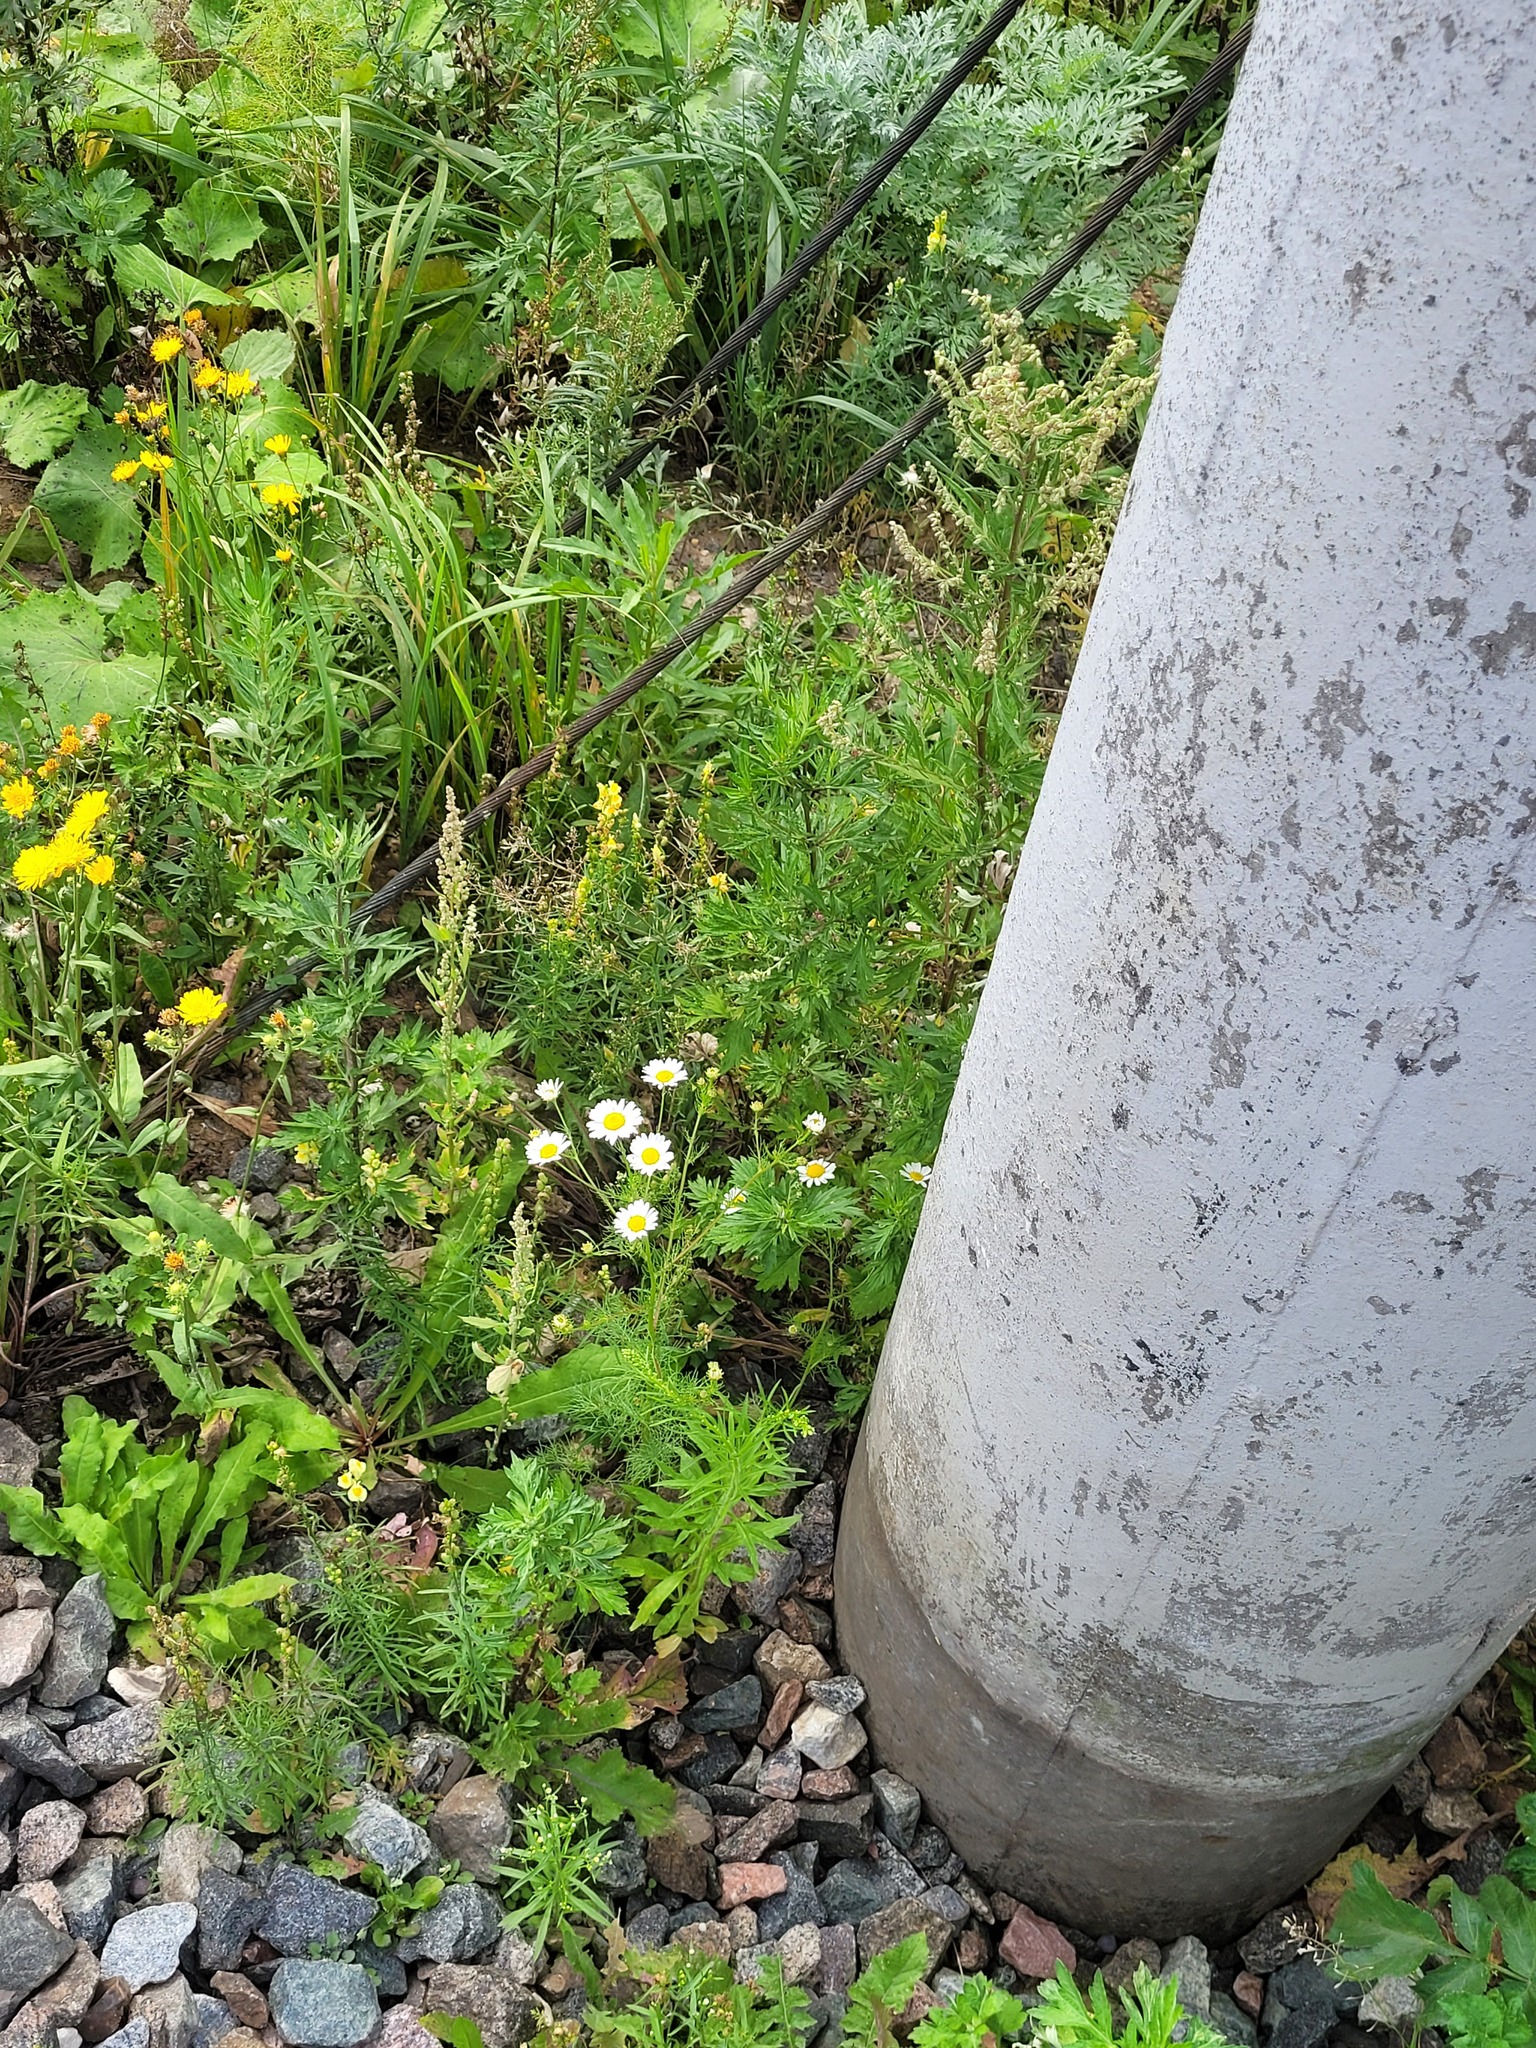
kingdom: Plantae
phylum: Tracheophyta
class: Magnoliopsida
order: Asterales
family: Asteraceae
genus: Tripleurospermum
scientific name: Tripleurospermum inodorum
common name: Scentless mayweed
